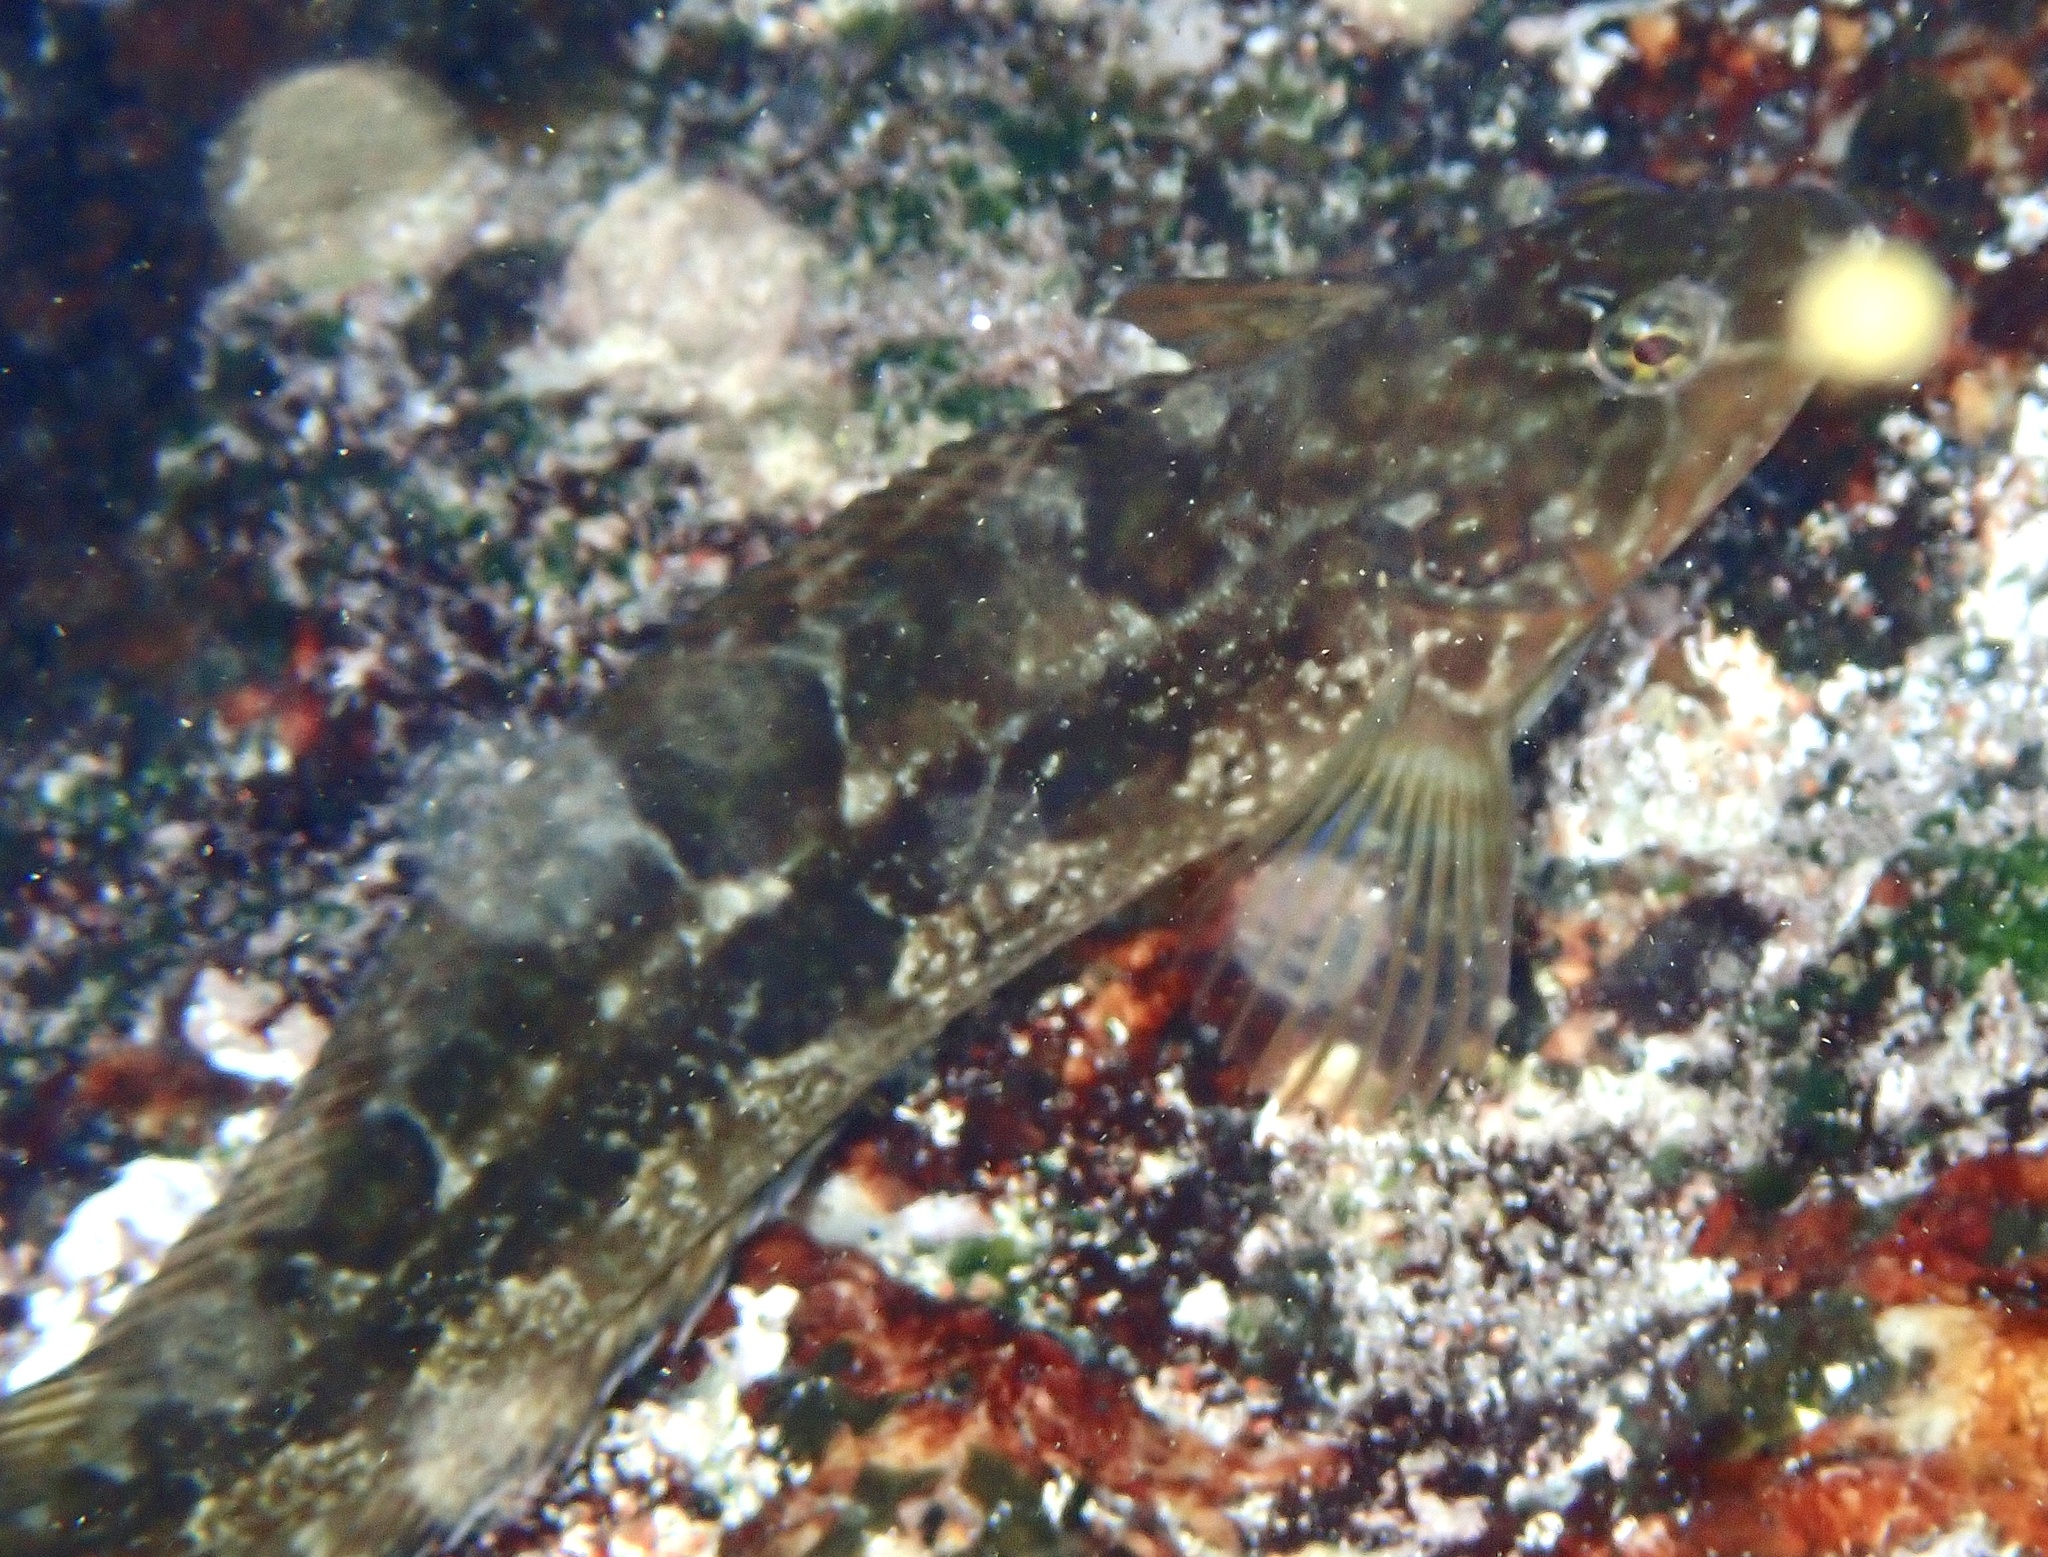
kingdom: Animalia
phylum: Chordata
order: Perciformes
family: Clinidae
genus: Clinus
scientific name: Clinus superciliosus
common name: Super klipfish
